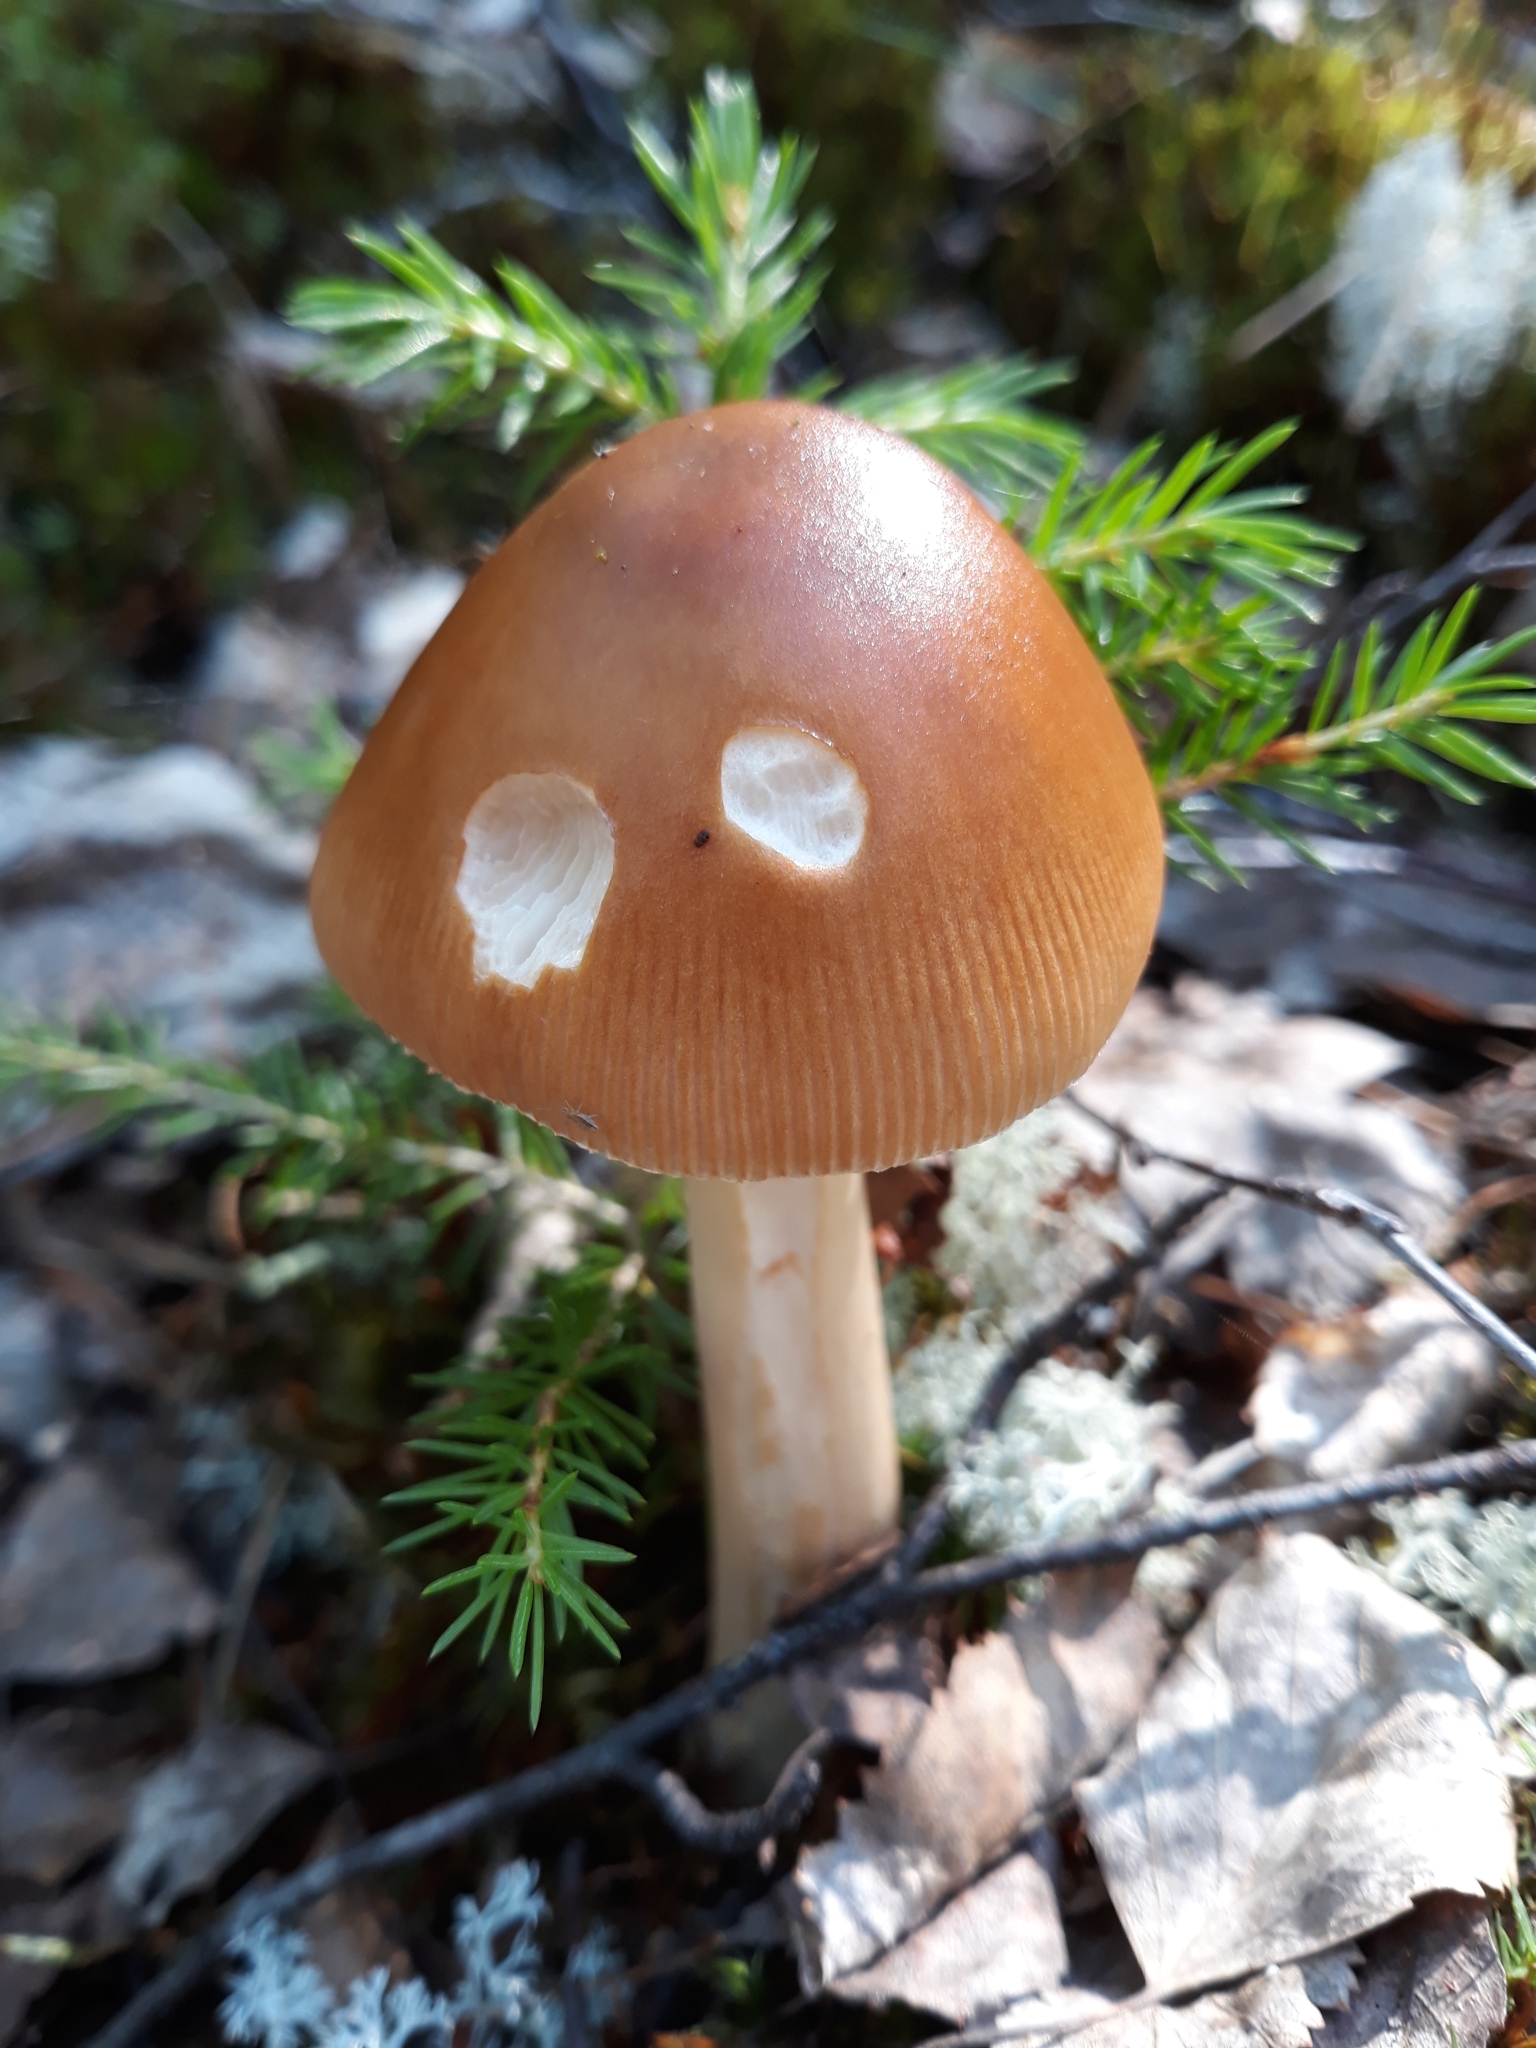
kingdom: Fungi
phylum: Basidiomycota
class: Agaricomycetes
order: Agaricales
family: Amanitaceae
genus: Amanita
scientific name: Amanita fulva
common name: Tawny grisette
